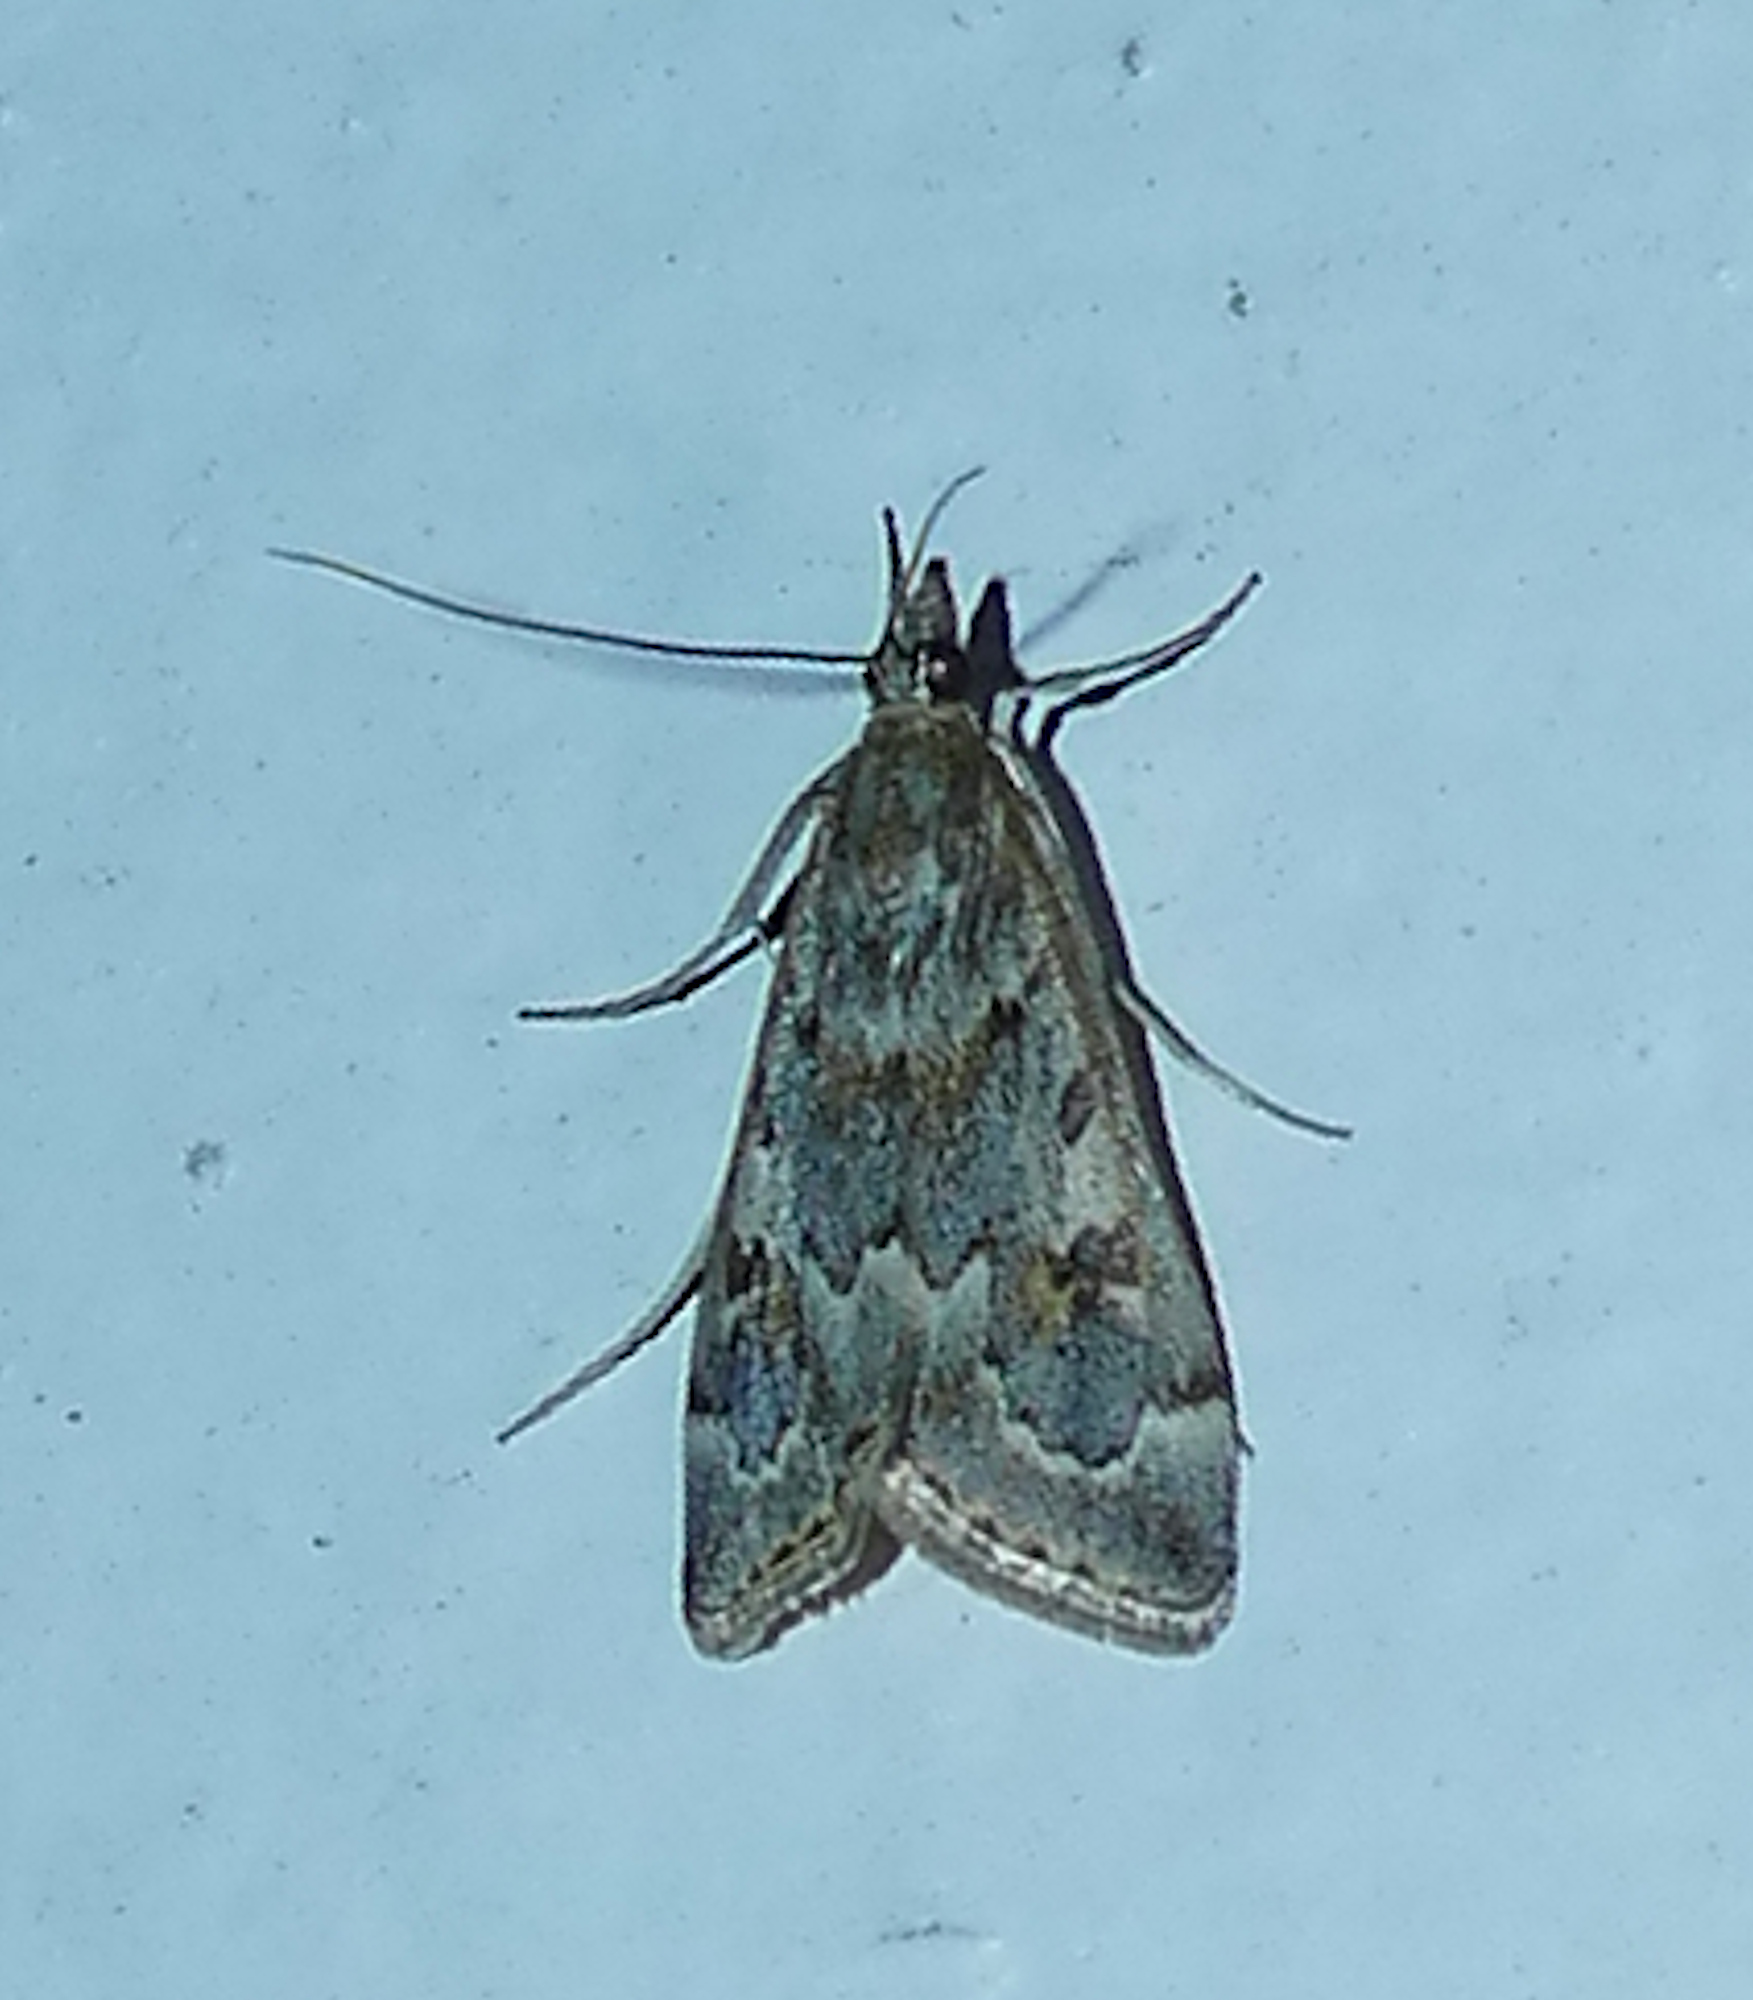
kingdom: Animalia
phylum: Arthropoda
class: Insecta
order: Lepidoptera
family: Crambidae
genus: Loxostege
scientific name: Loxostege allectalis
